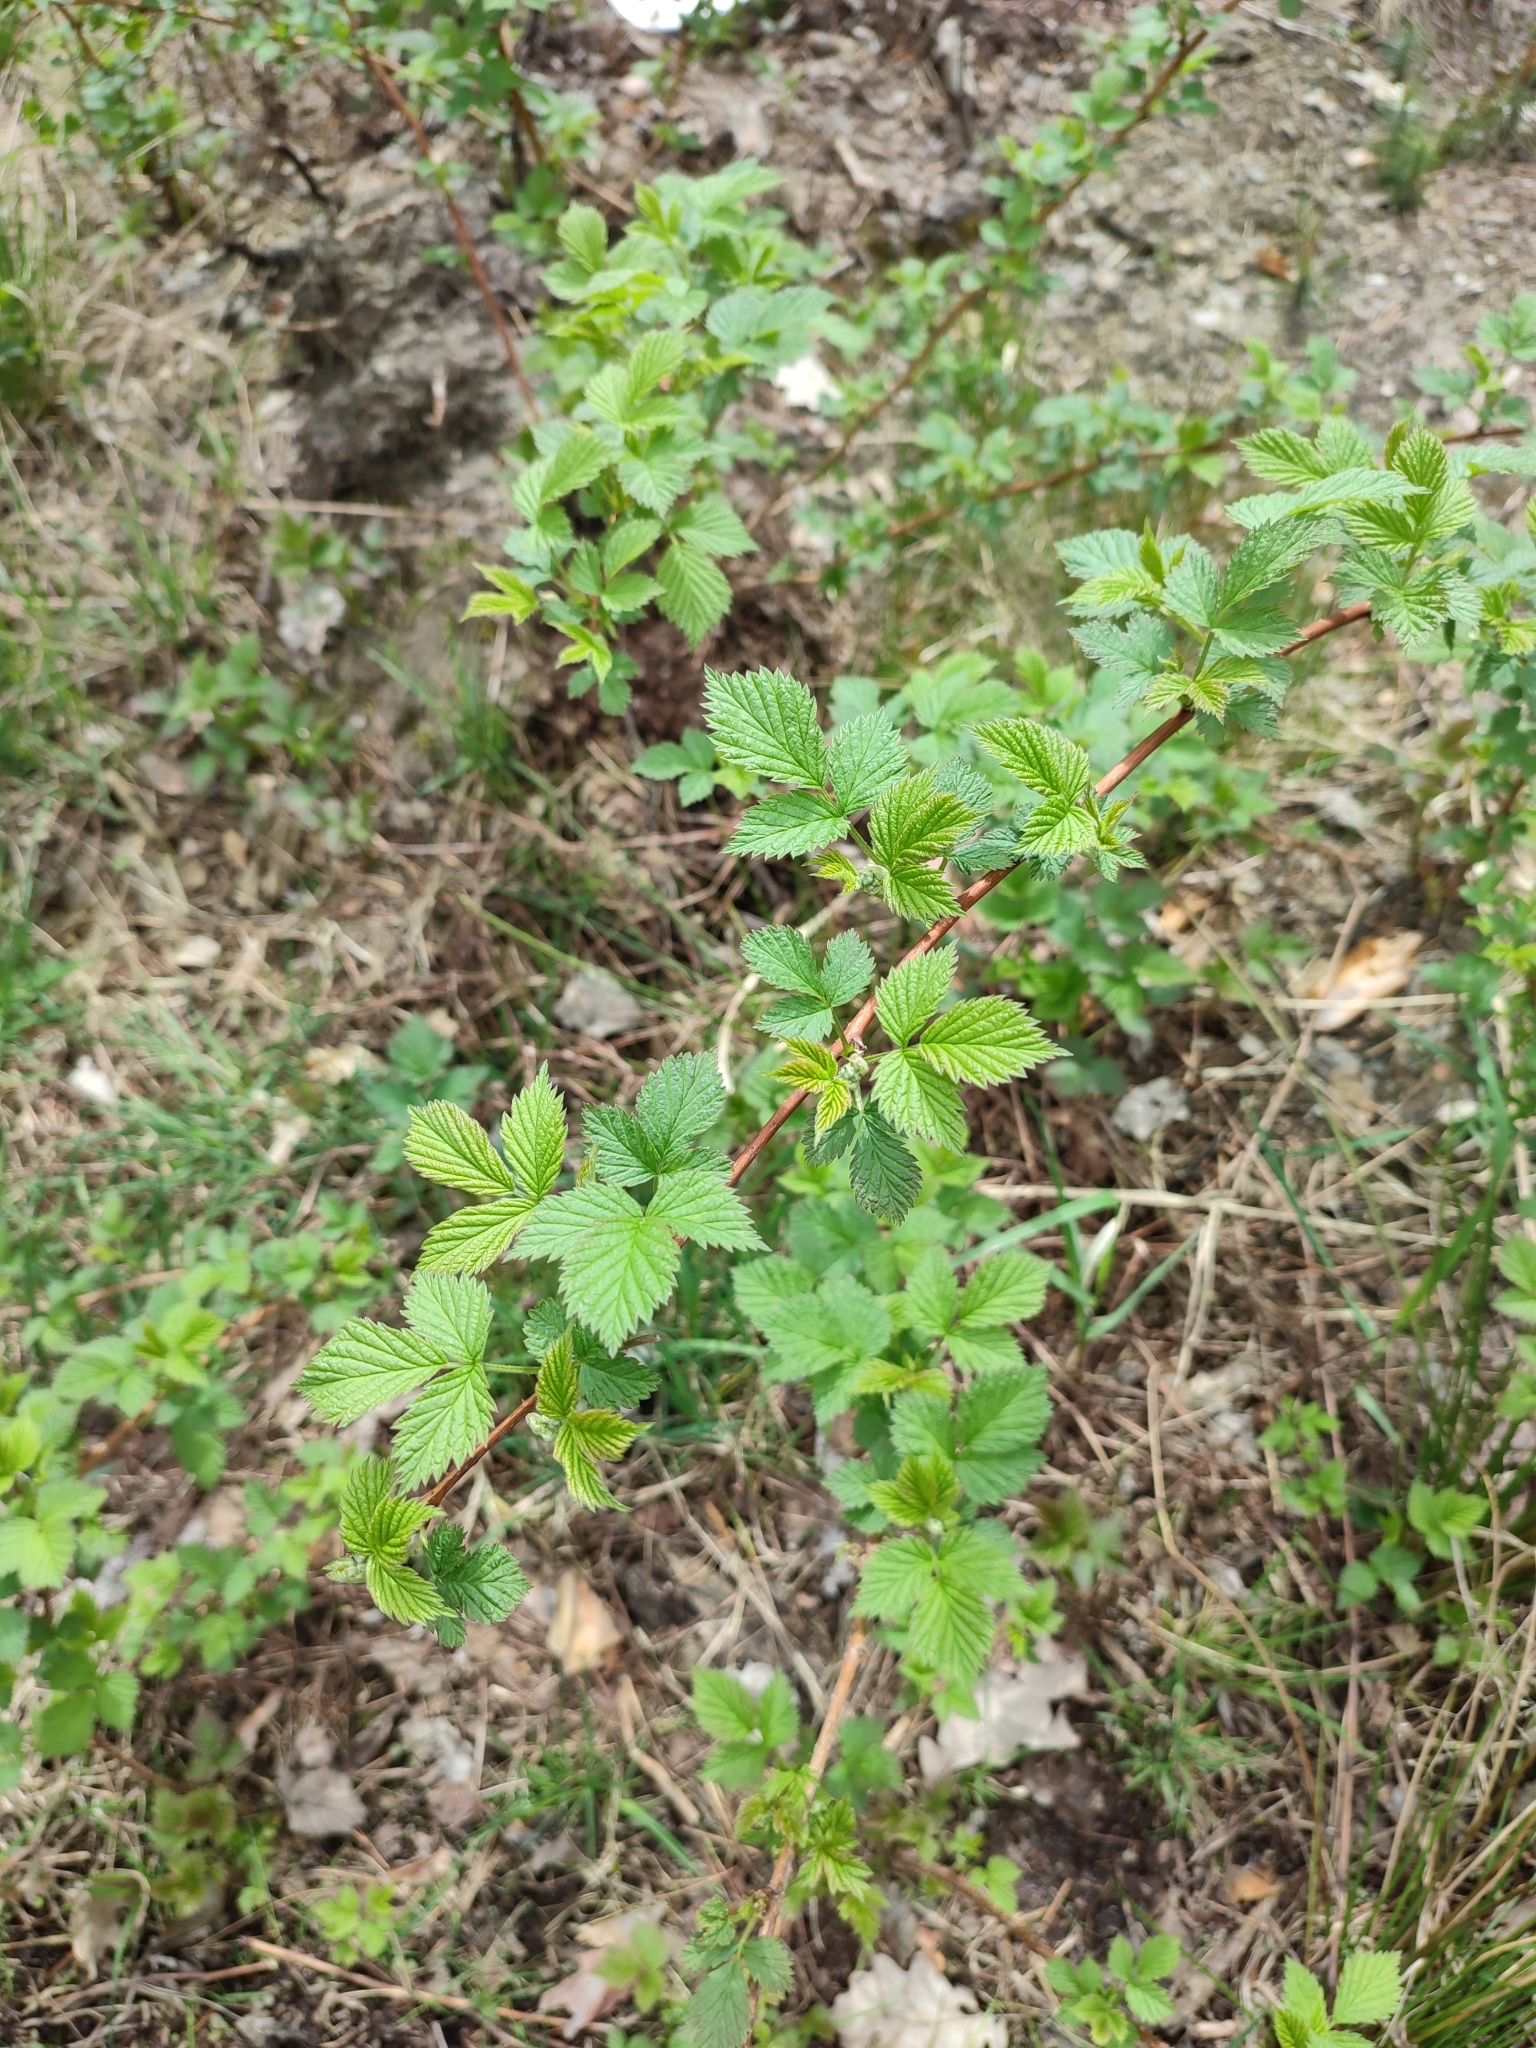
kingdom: Plantae
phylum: Tracheophyta
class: Magnoliopsida
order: Rosales
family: Rosaceae
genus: Rubus
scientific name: Rubus idaeus
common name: Raspberry
